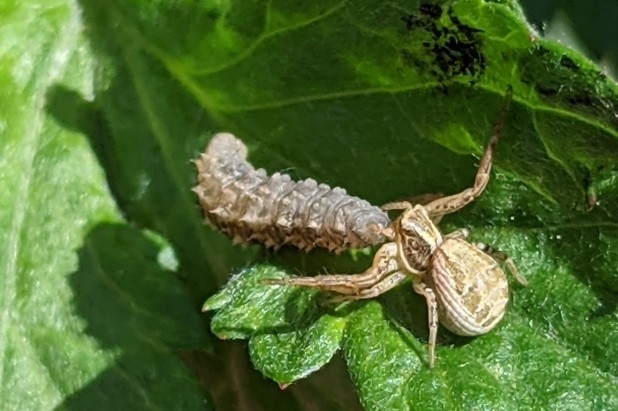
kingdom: Animalia
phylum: Arthropoda
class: Insecta
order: Diptera
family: Syrphidae
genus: Eupeodes
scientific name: Eupeodes
